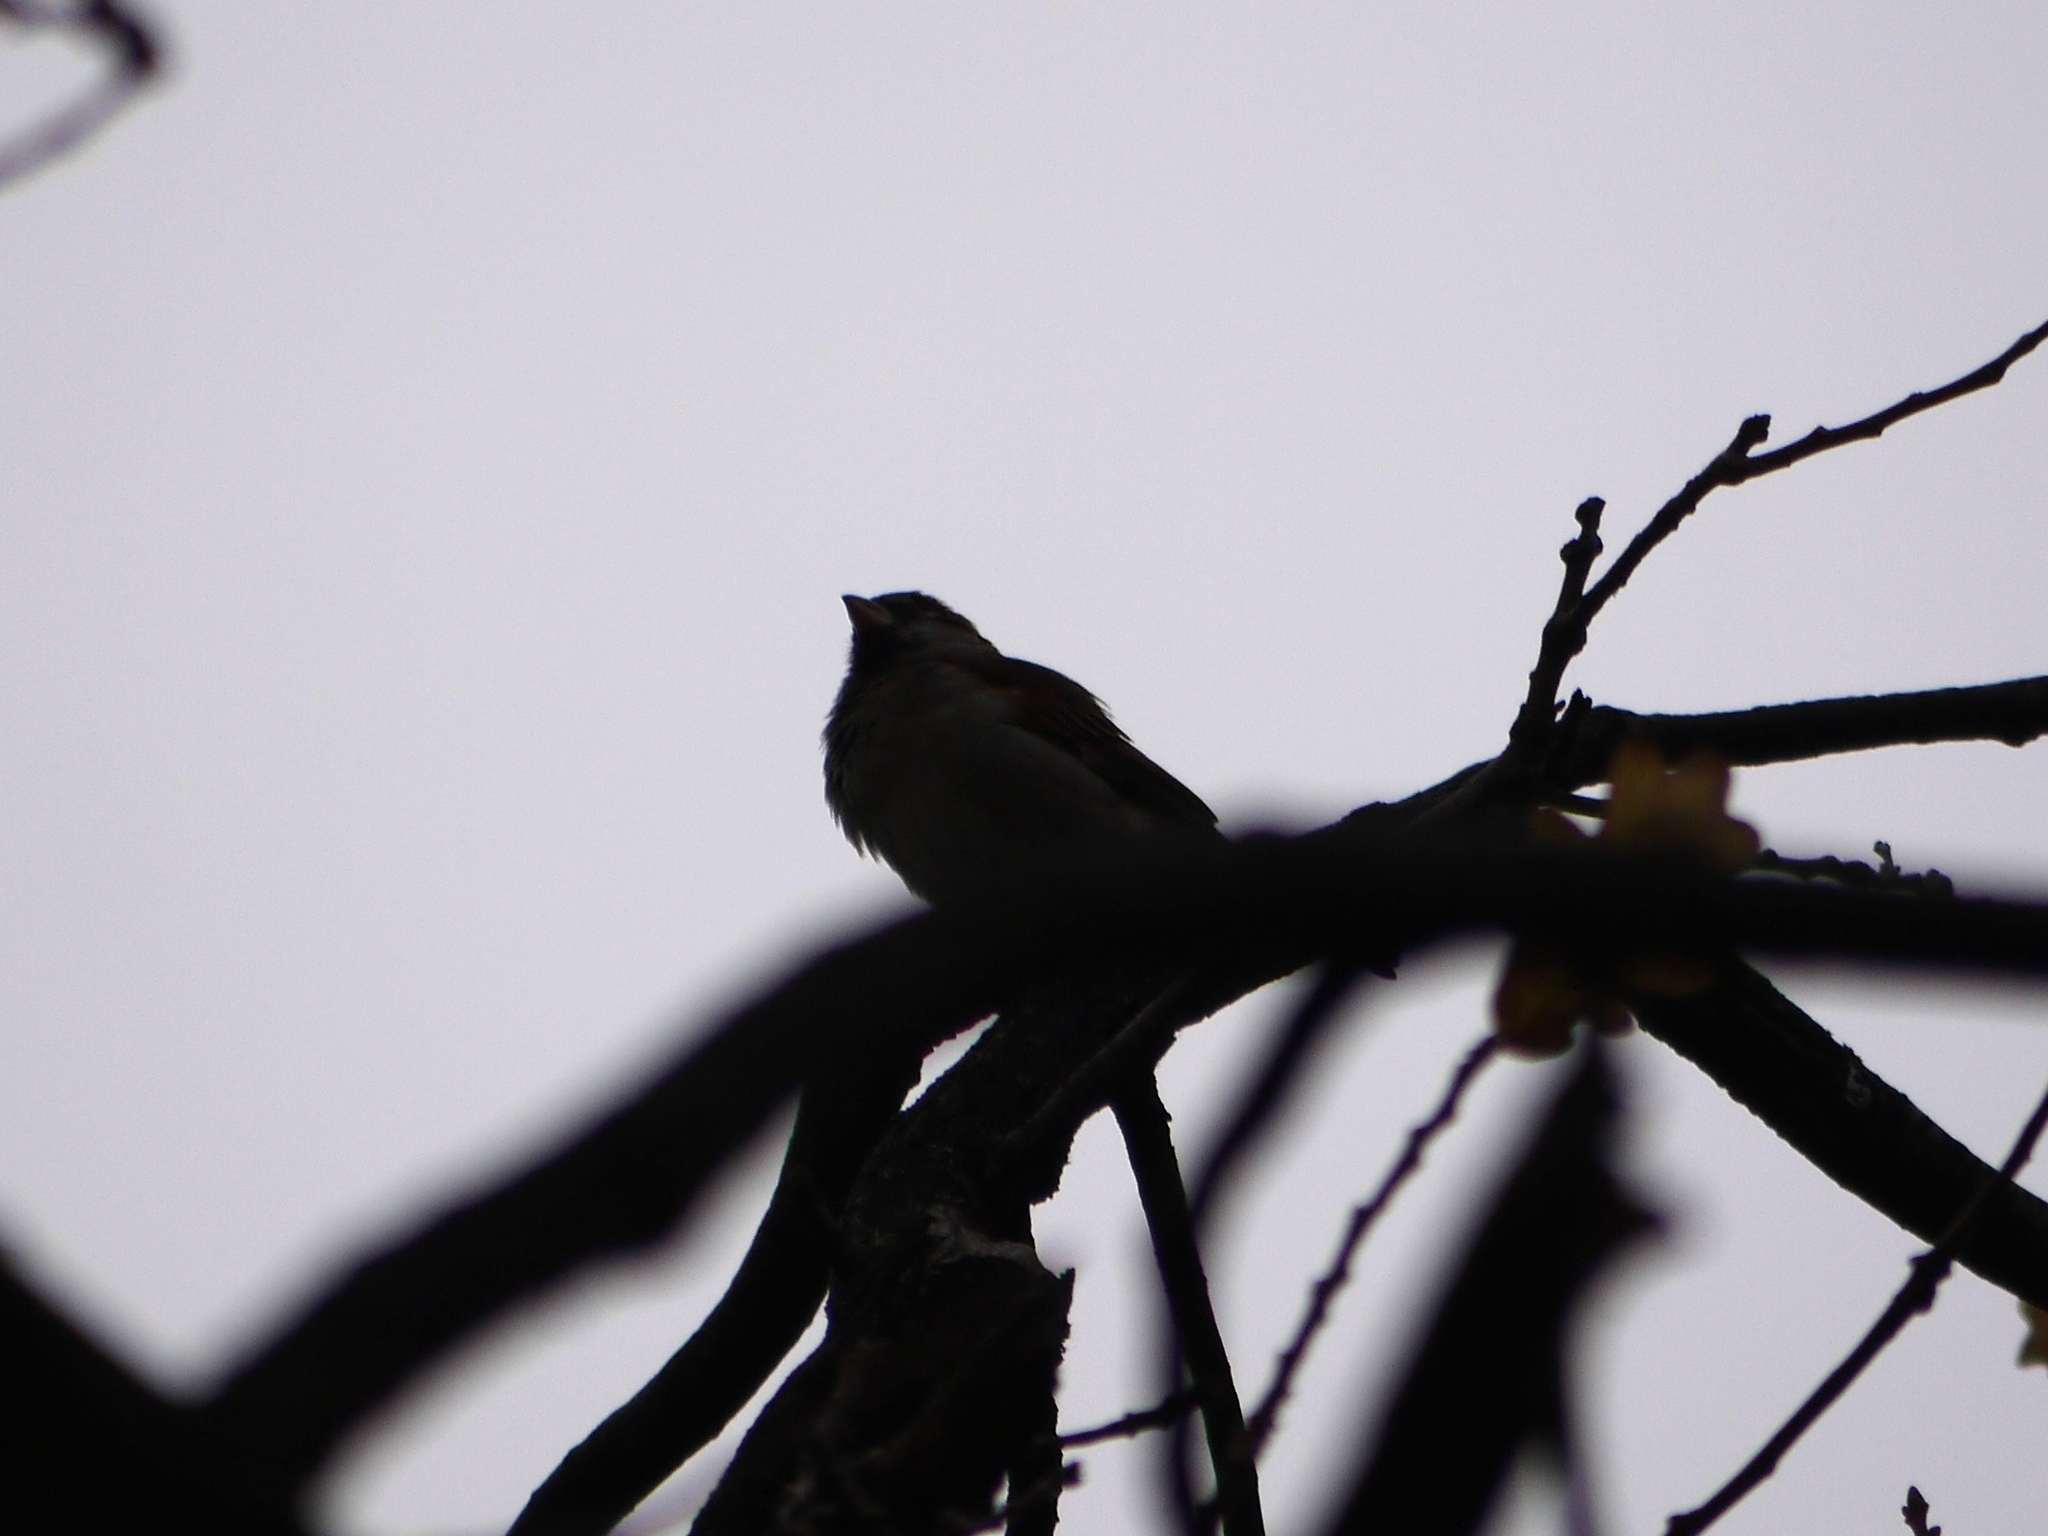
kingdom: Animalia
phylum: Chordata
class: Aves
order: Passeriformes
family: Passeridae
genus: Passer
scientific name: Passer domesticus
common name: House sparrow
